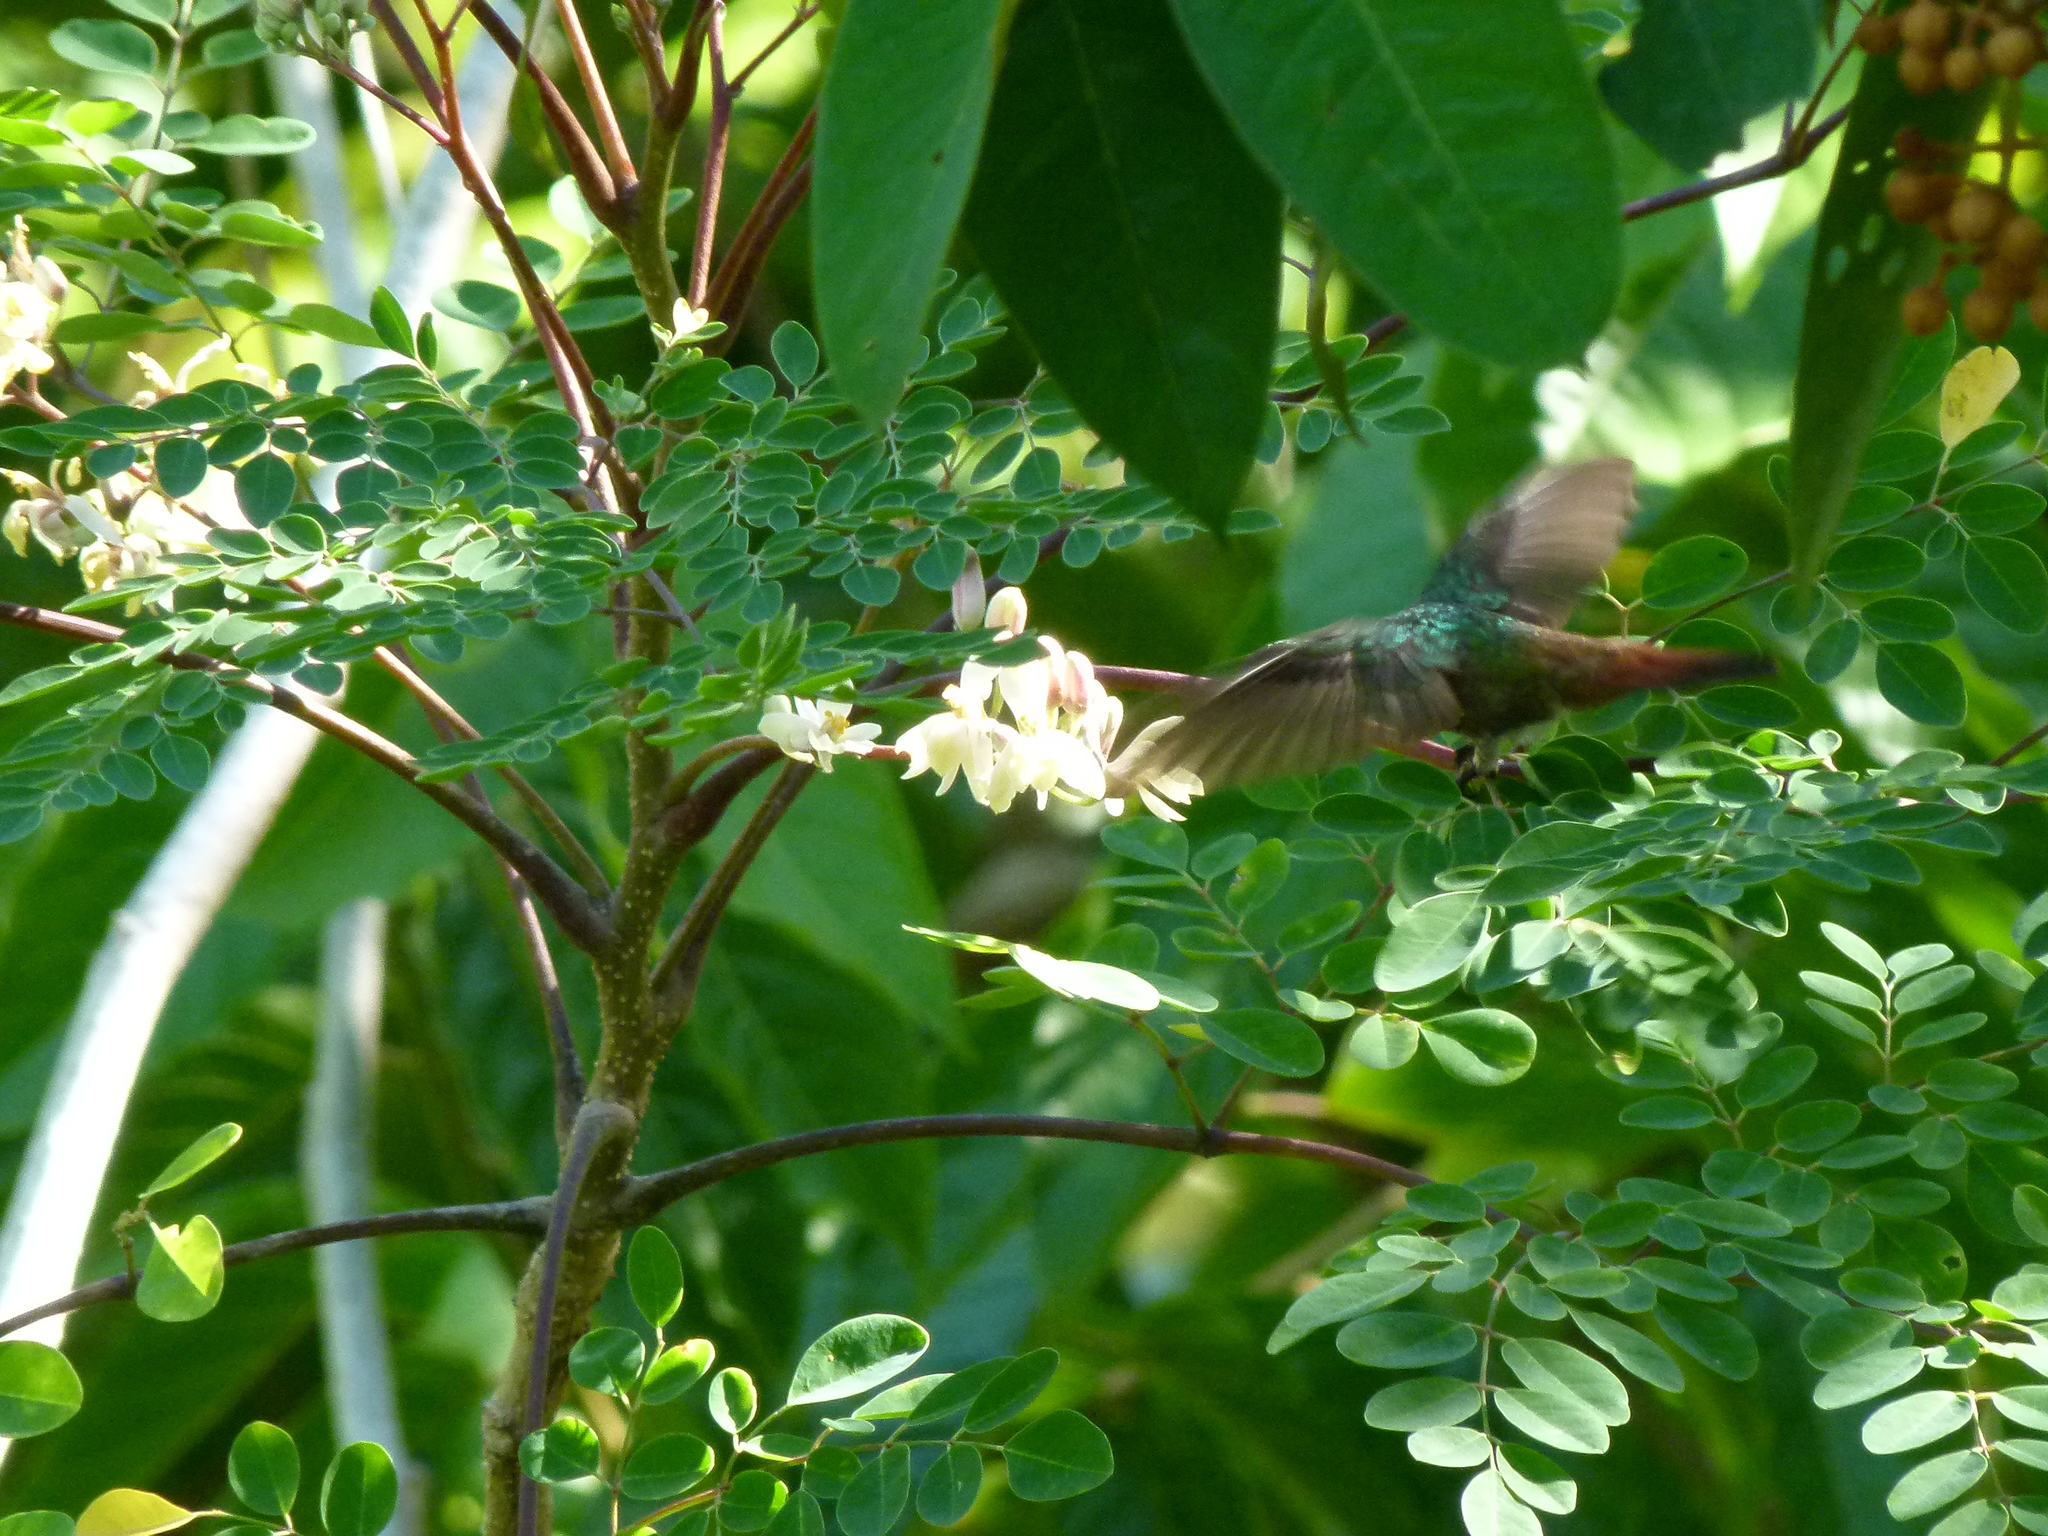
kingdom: Animalia
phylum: Chordata
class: Aves
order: Apodiformes
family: Trochilidae
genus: Amazilia
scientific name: Amazilia tzacatl
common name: Rufous-tailed hummingbird
